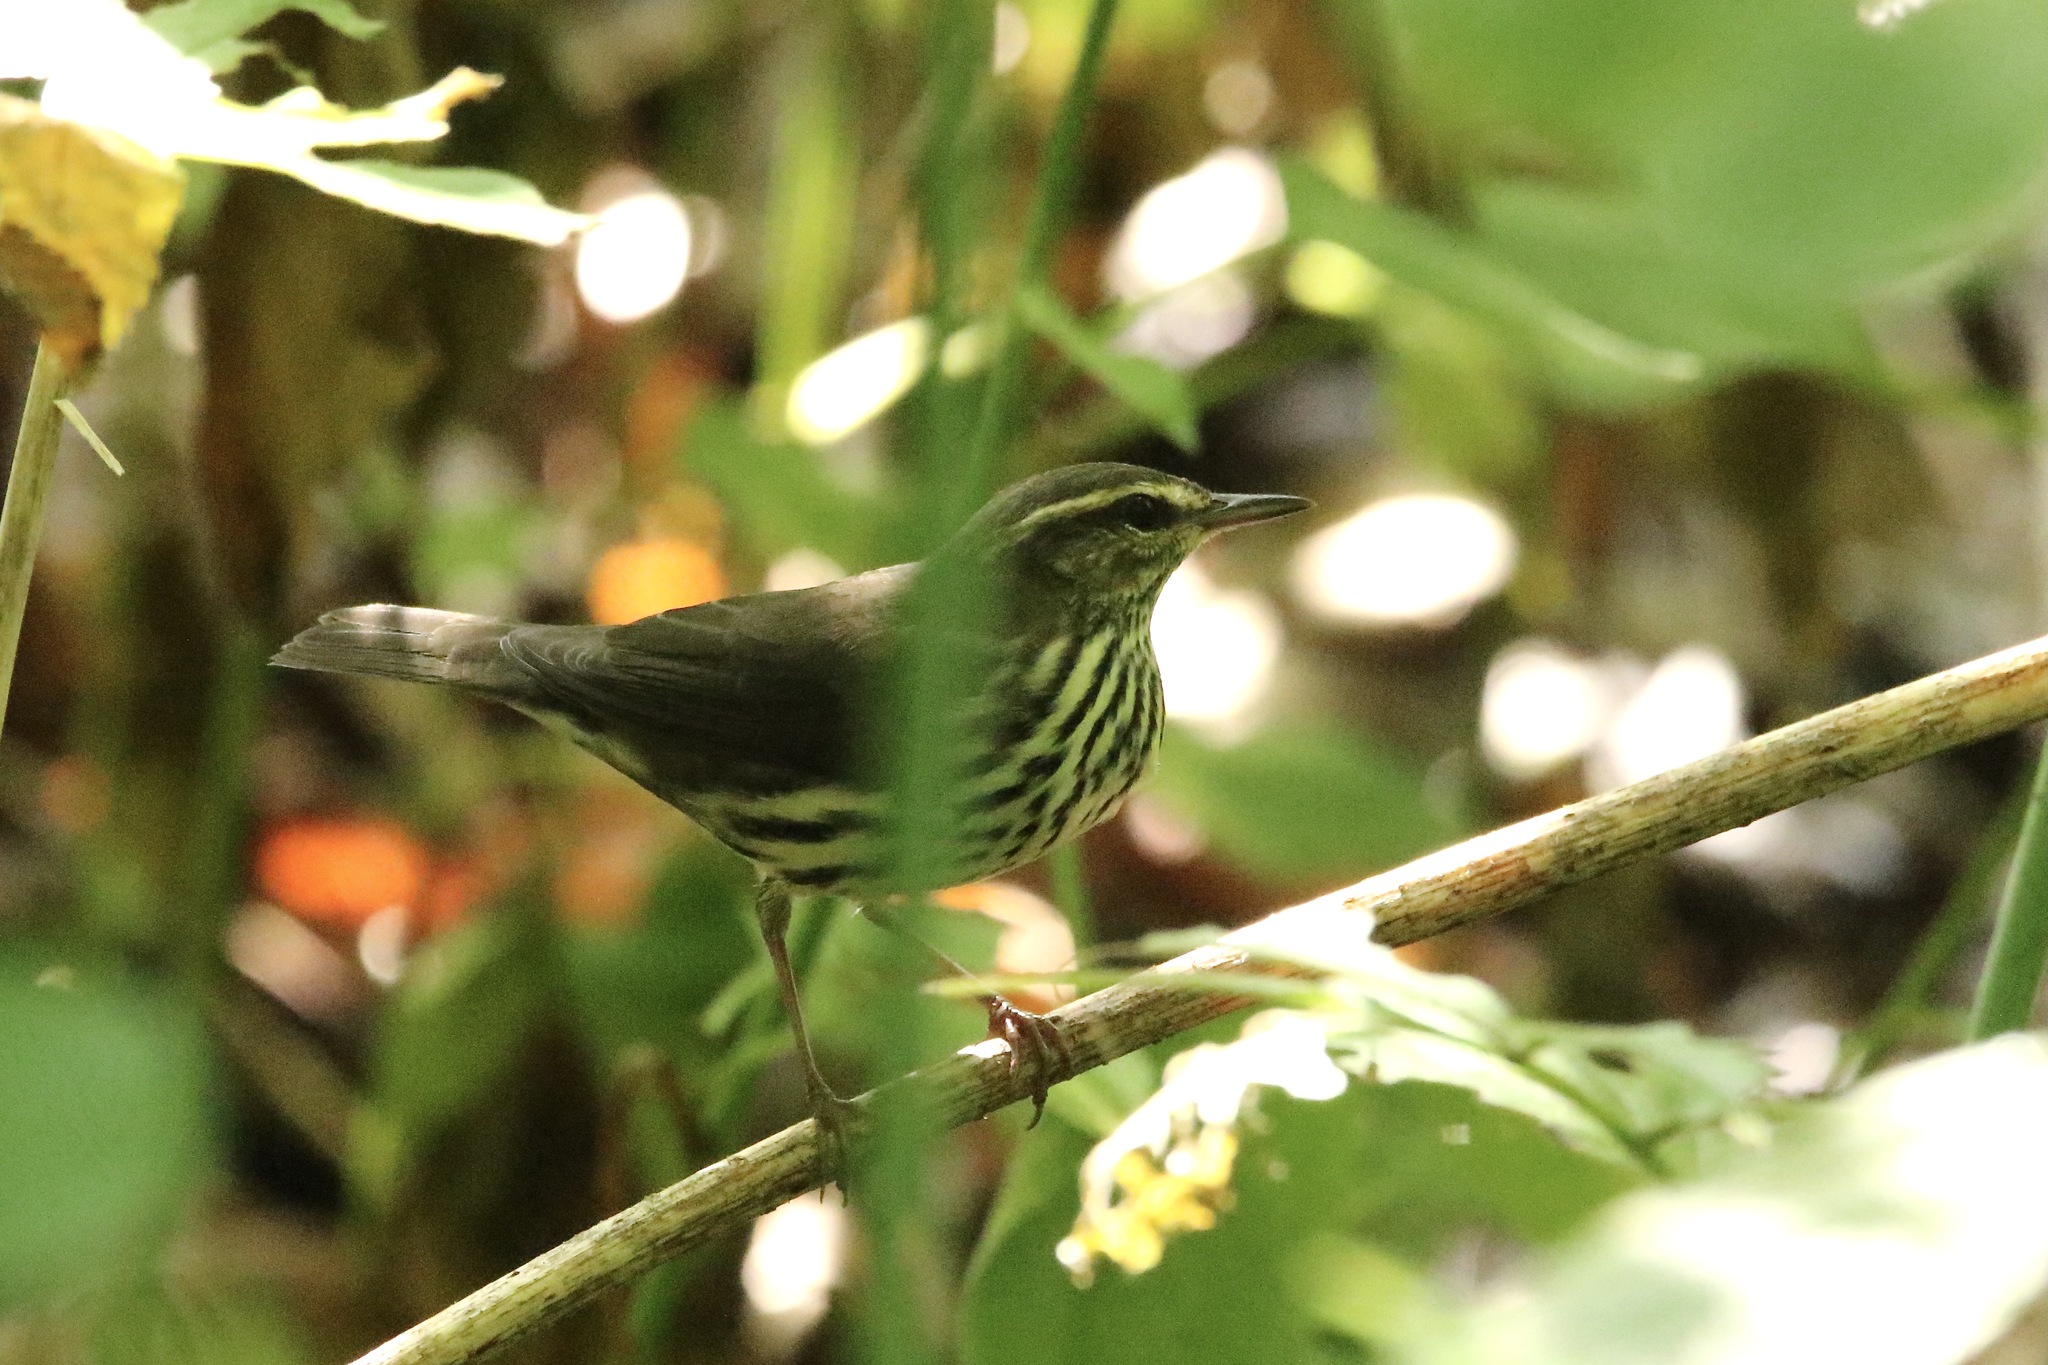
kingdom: Animalia
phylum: Chordata
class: Aves
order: Passeriformes
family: Parulidae
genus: Parkesia
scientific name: Parkesia noveboracensis
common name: Northern waterthrush
